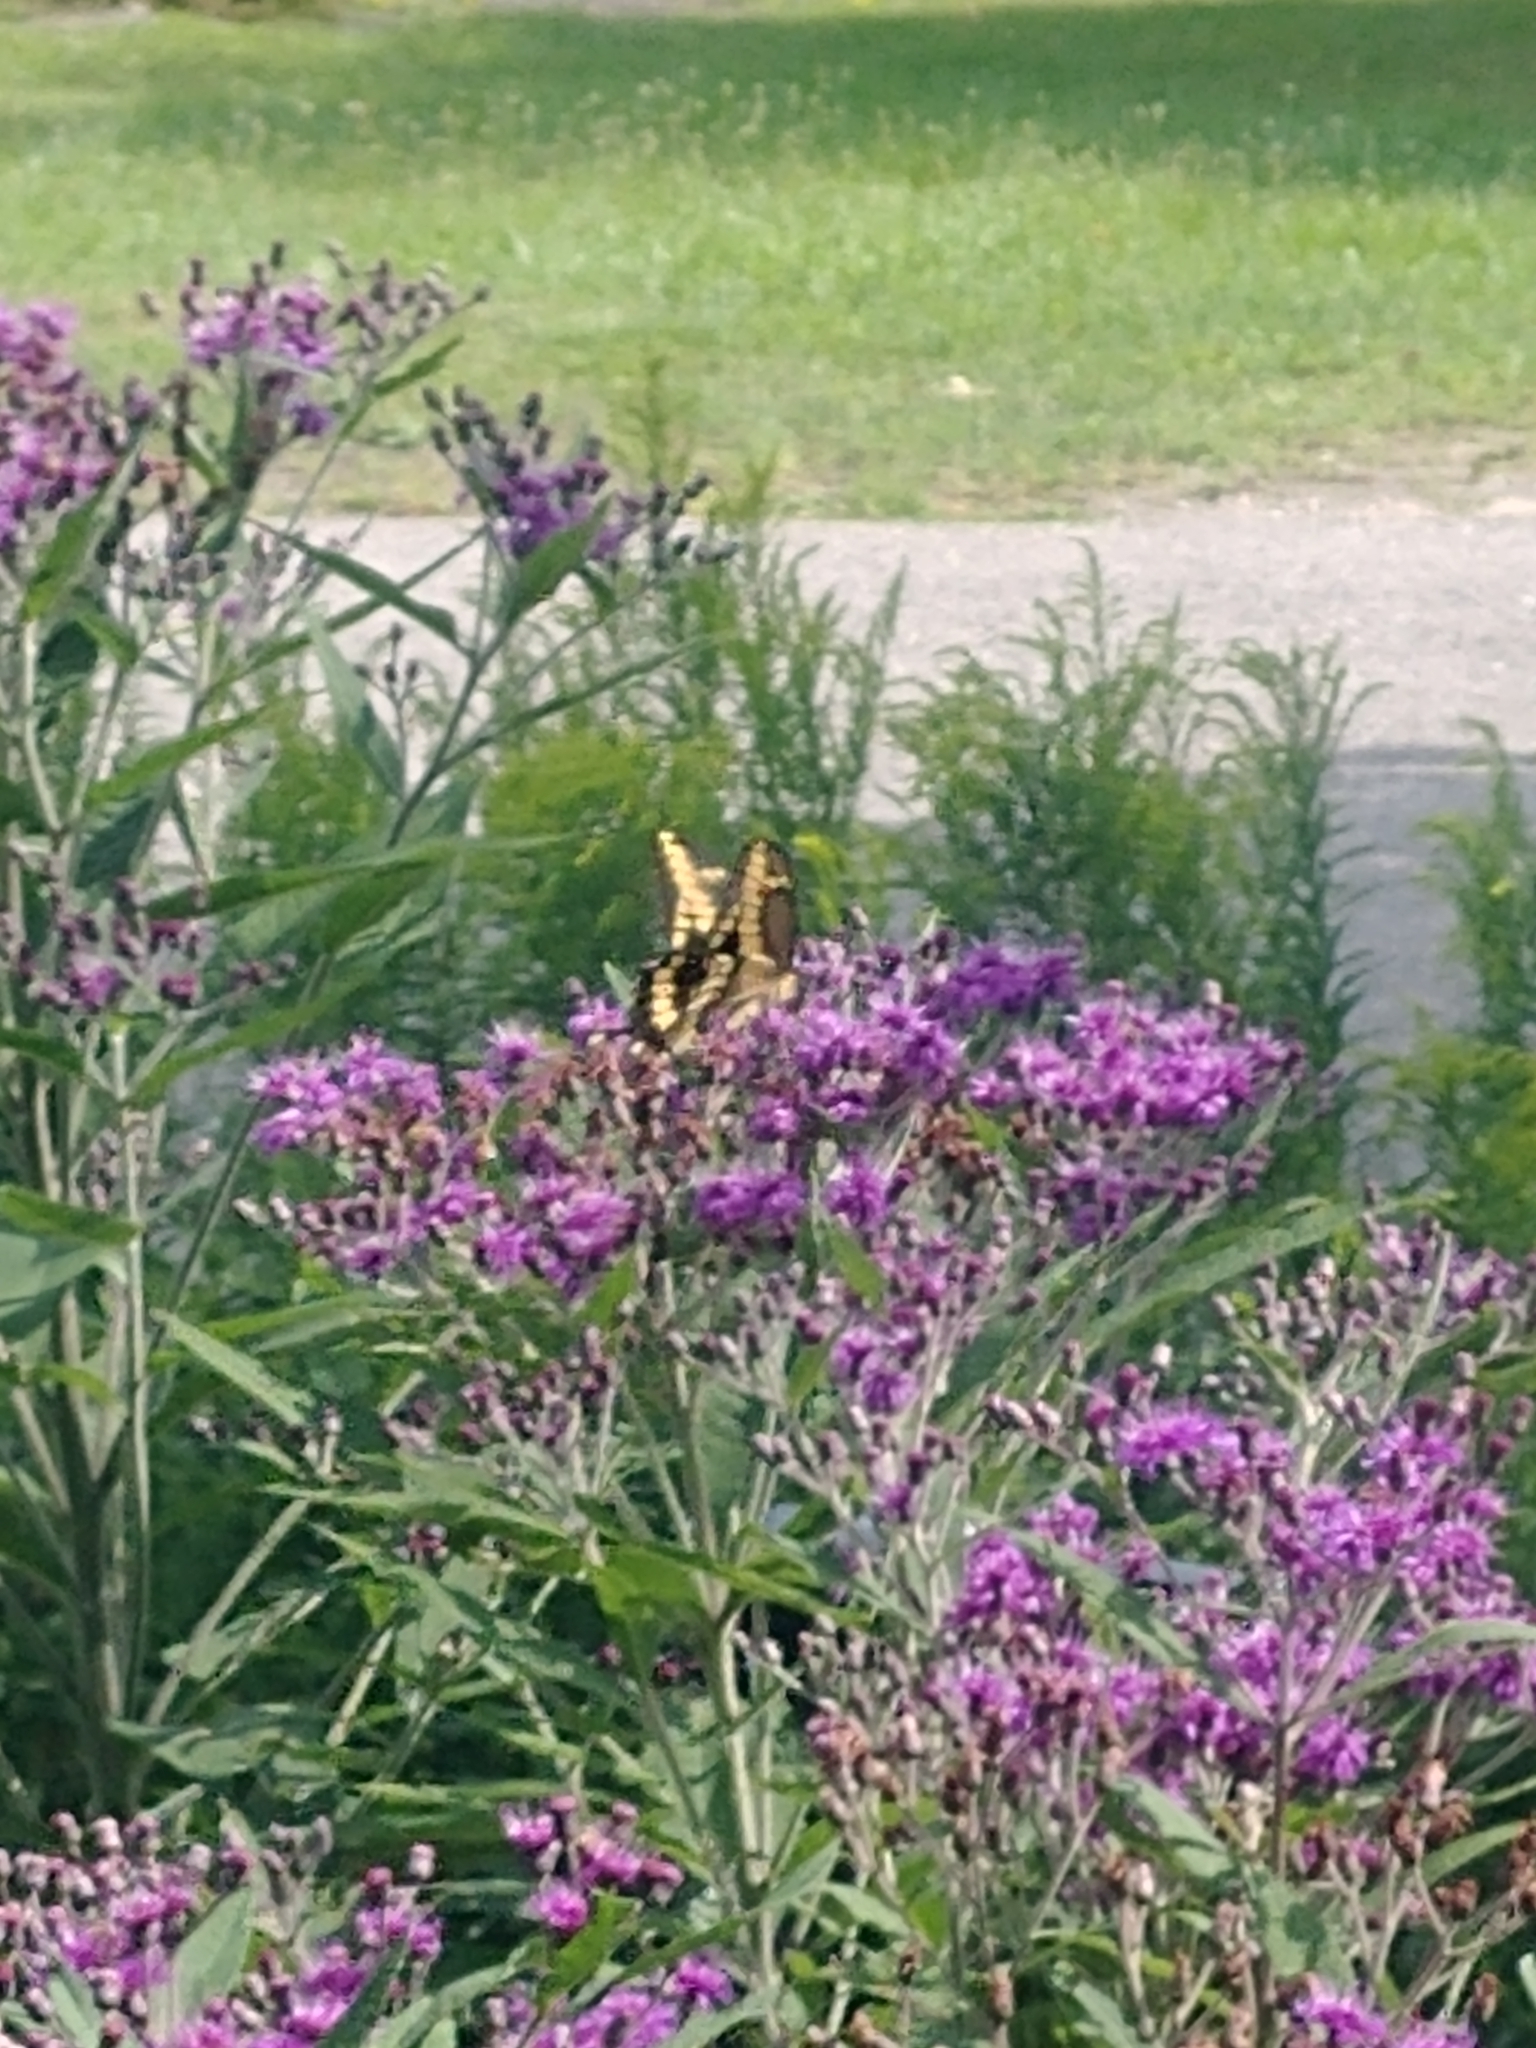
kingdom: Animalia
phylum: Arthropoda
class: Insecta
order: Lepidoptera
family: Papilionidae
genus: Papilio
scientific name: Papilio cresphontes
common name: Giant swallowtail
